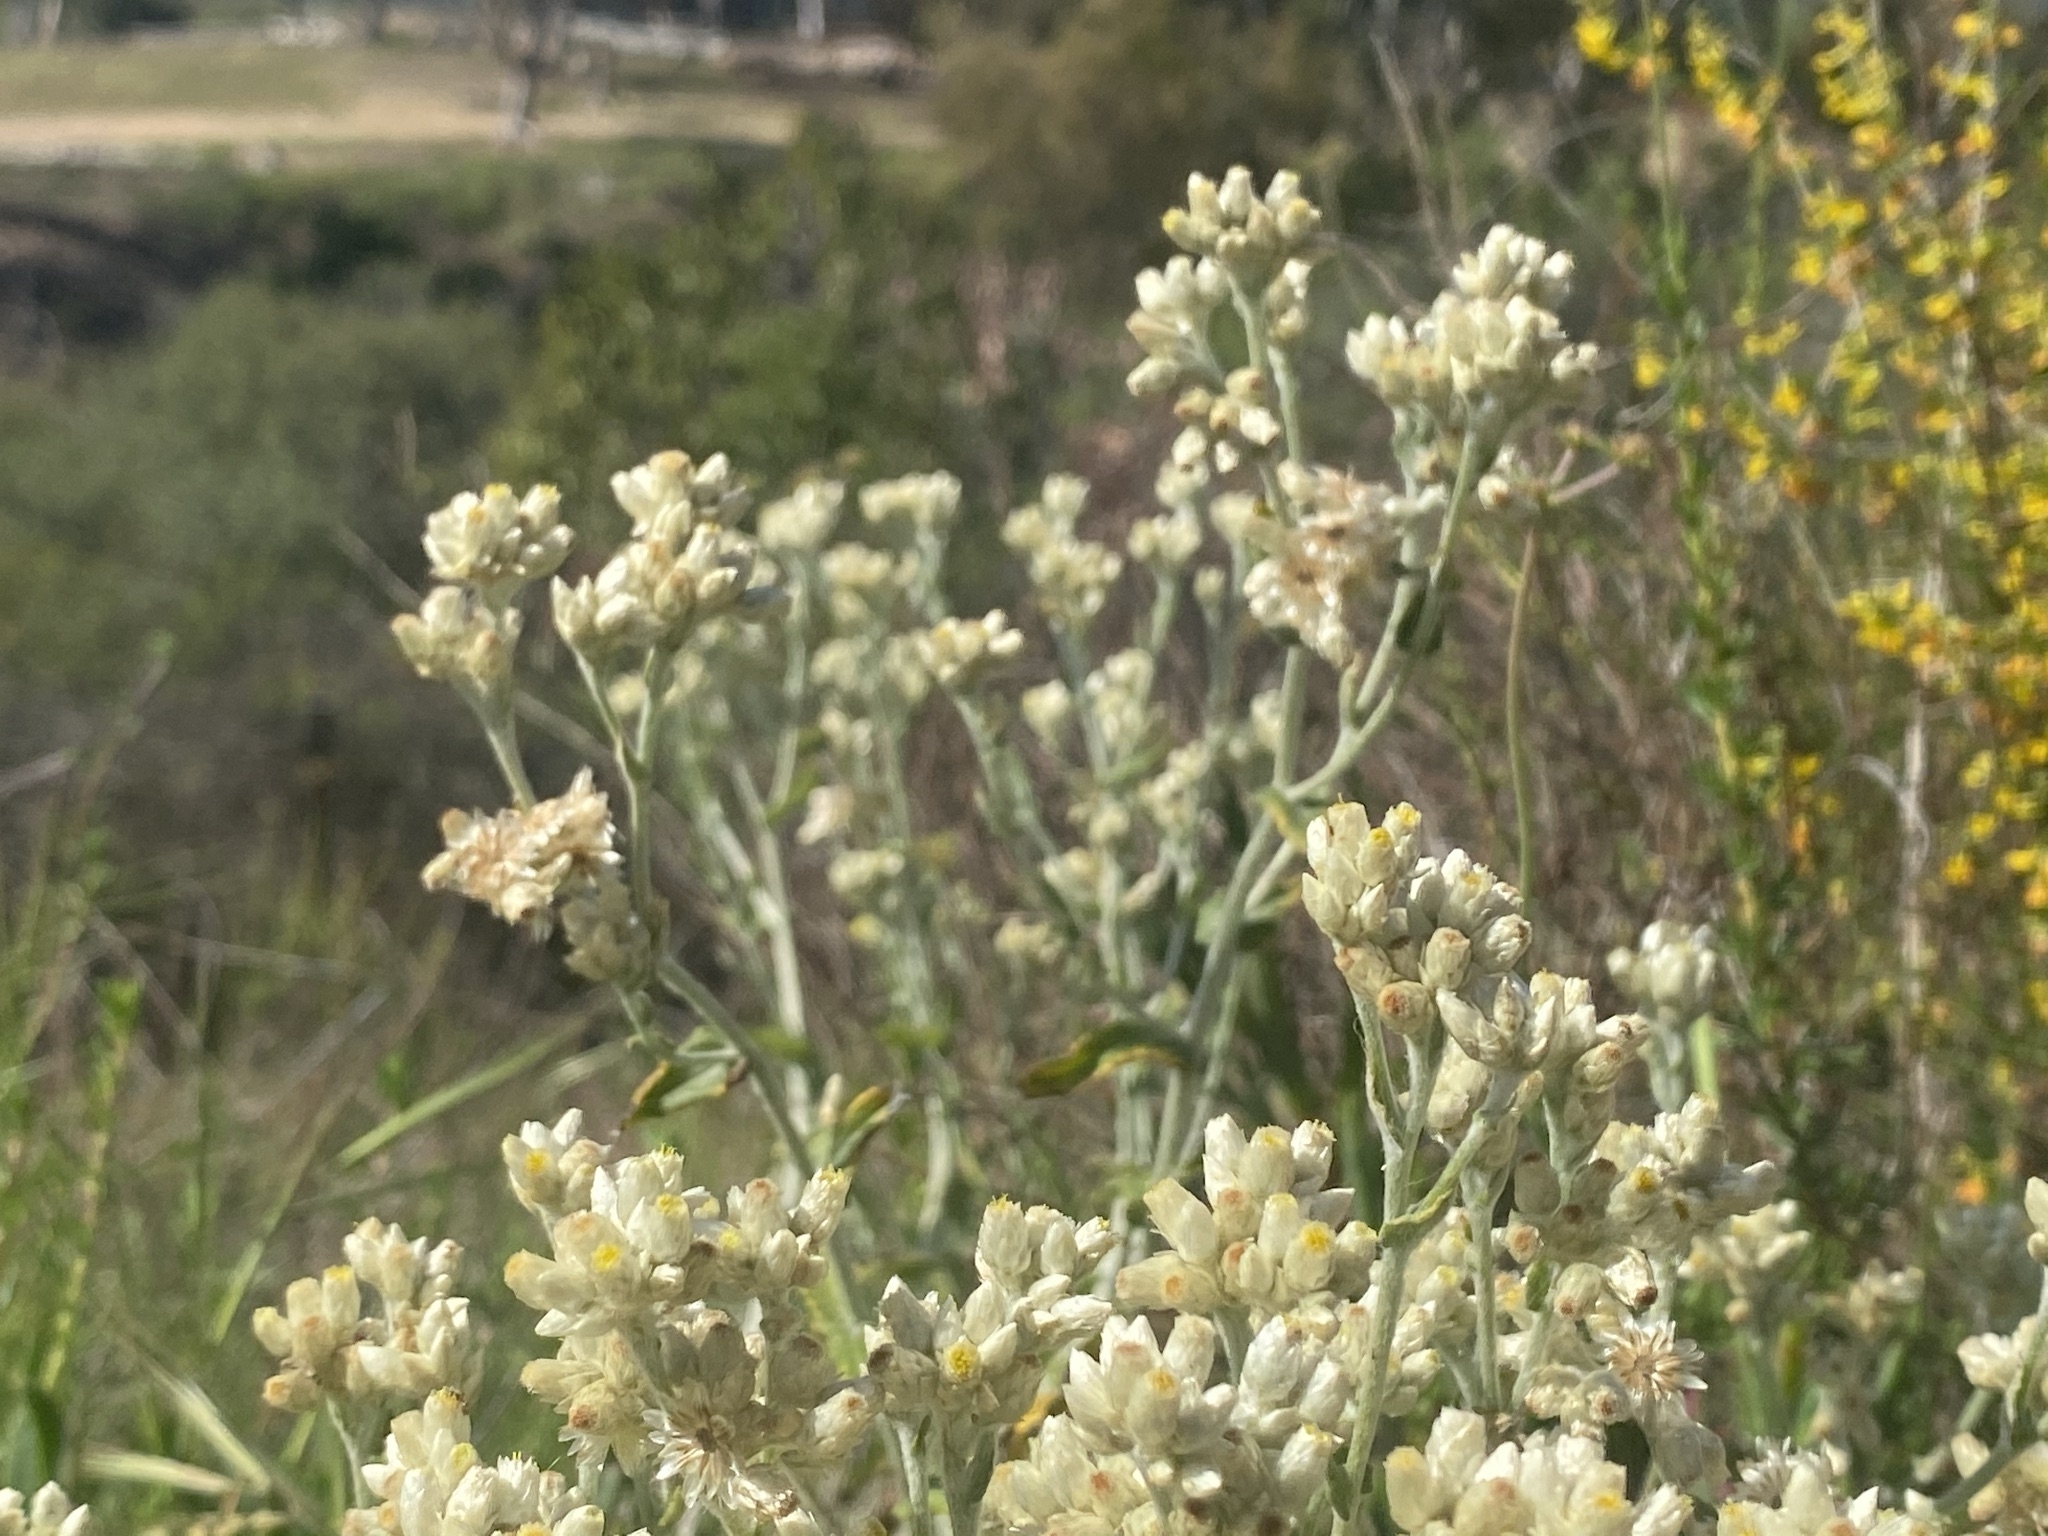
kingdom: Plantae
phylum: Tracheophyta
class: Magnoliopsida
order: Asterales
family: Asteraceae
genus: Pseudognaphalium
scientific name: Pseudognaphalium biolettii
